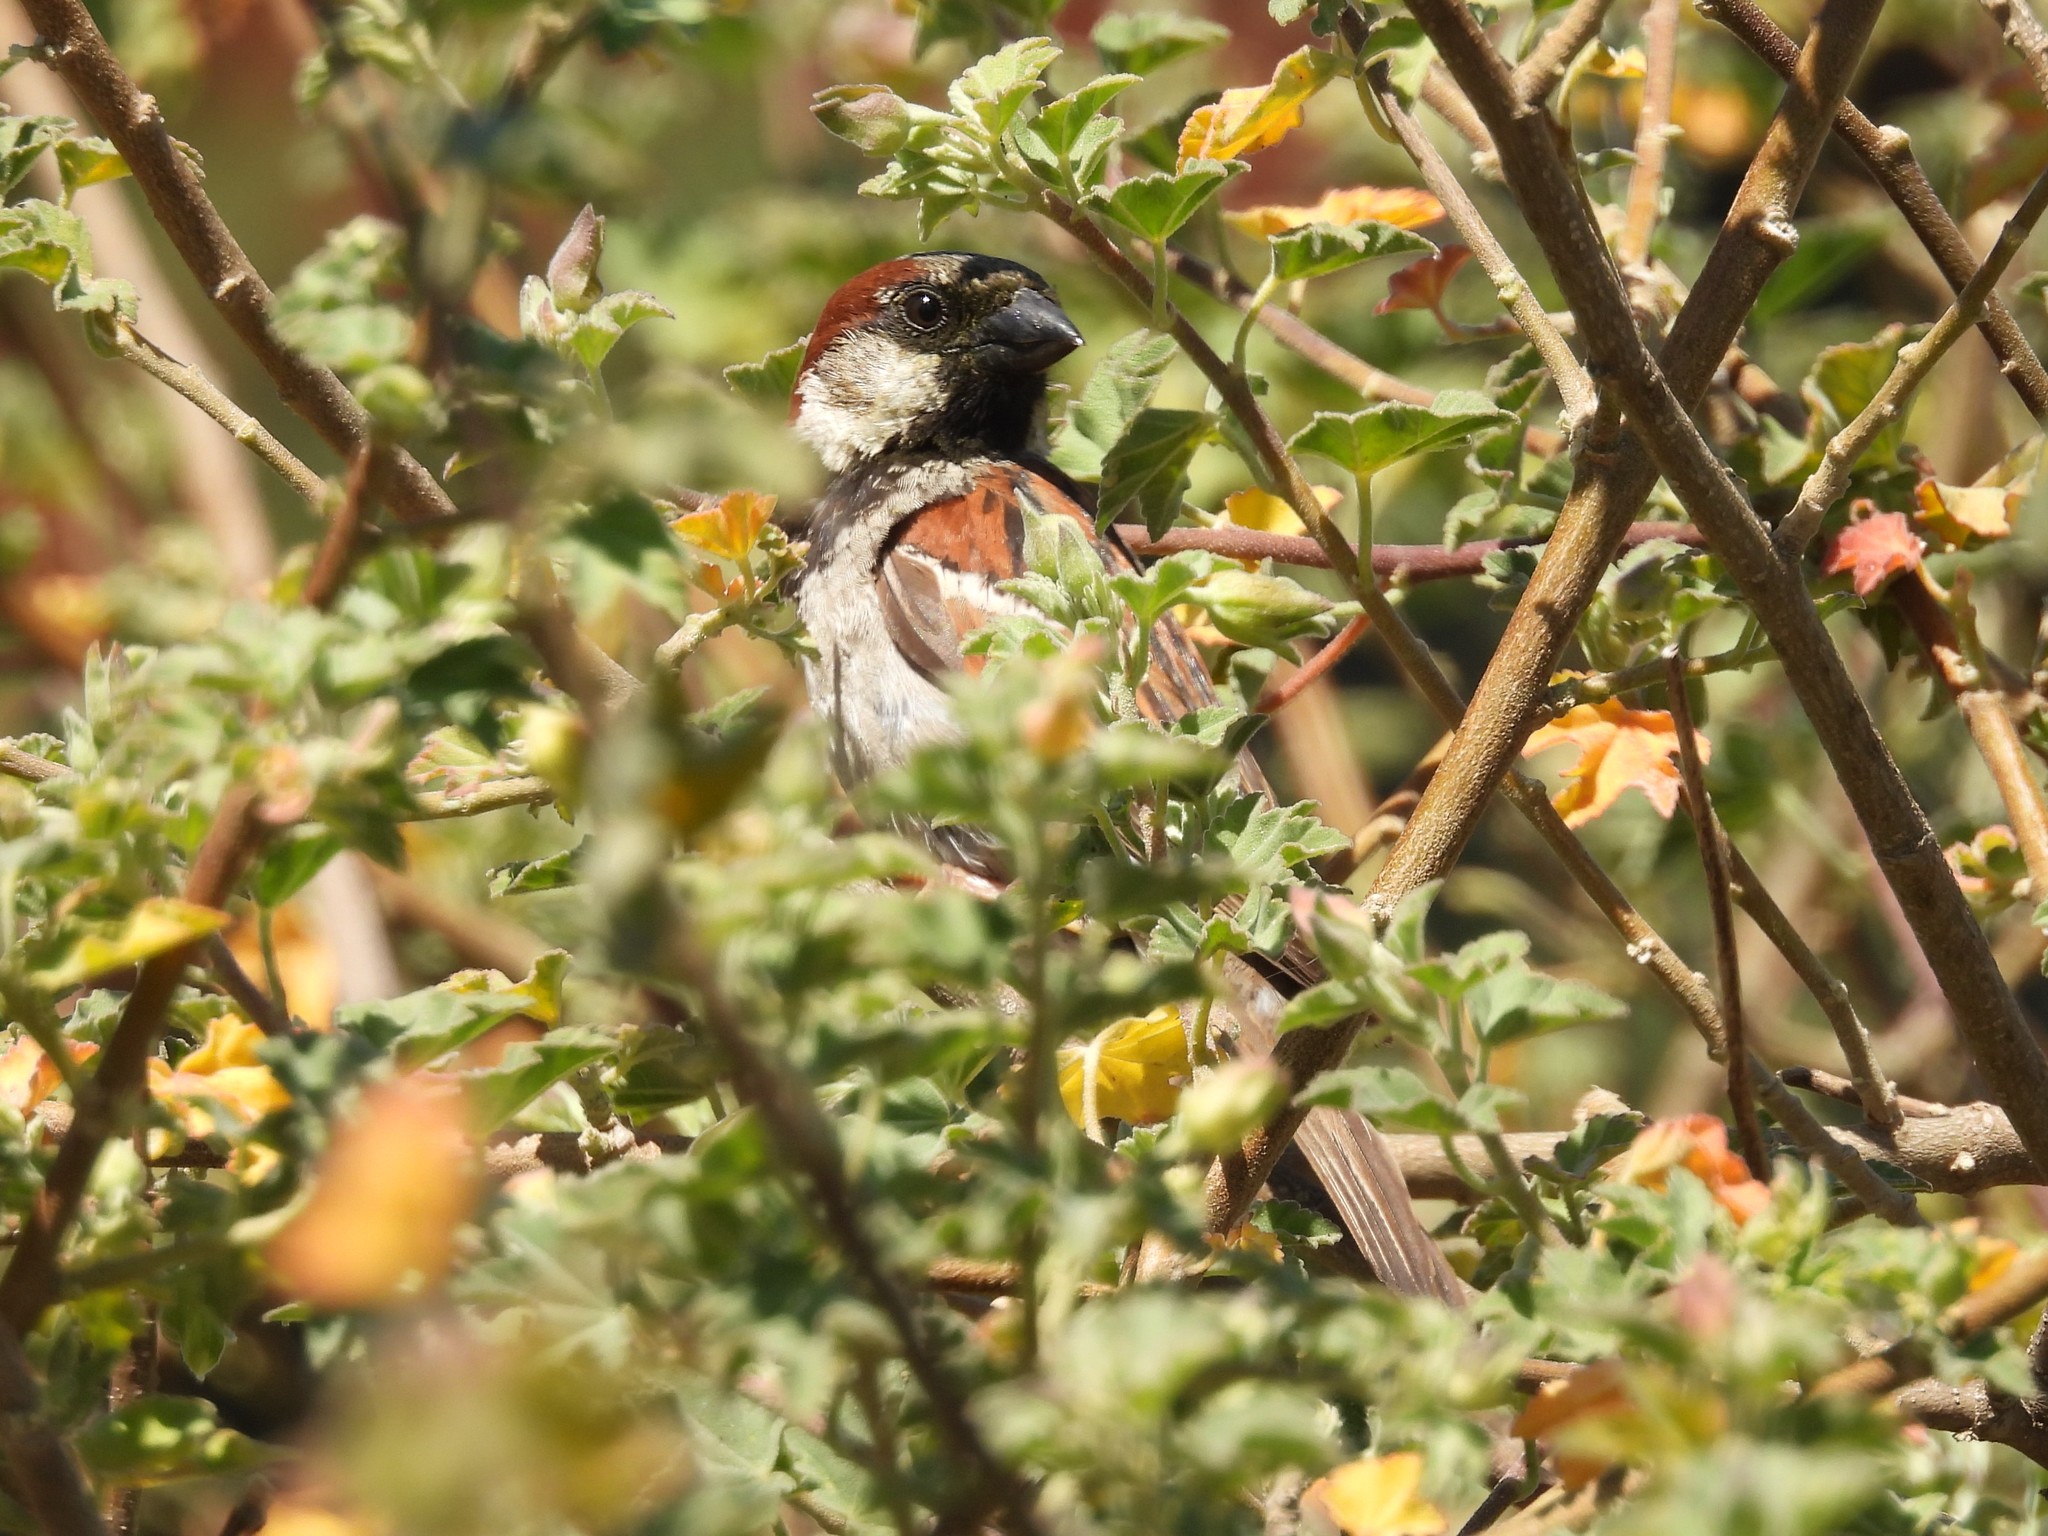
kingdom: Animalia
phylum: Chordata
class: Aves
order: Passeriformes
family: Passeridae
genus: Passer
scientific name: Passer domesticus
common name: House sparrow
